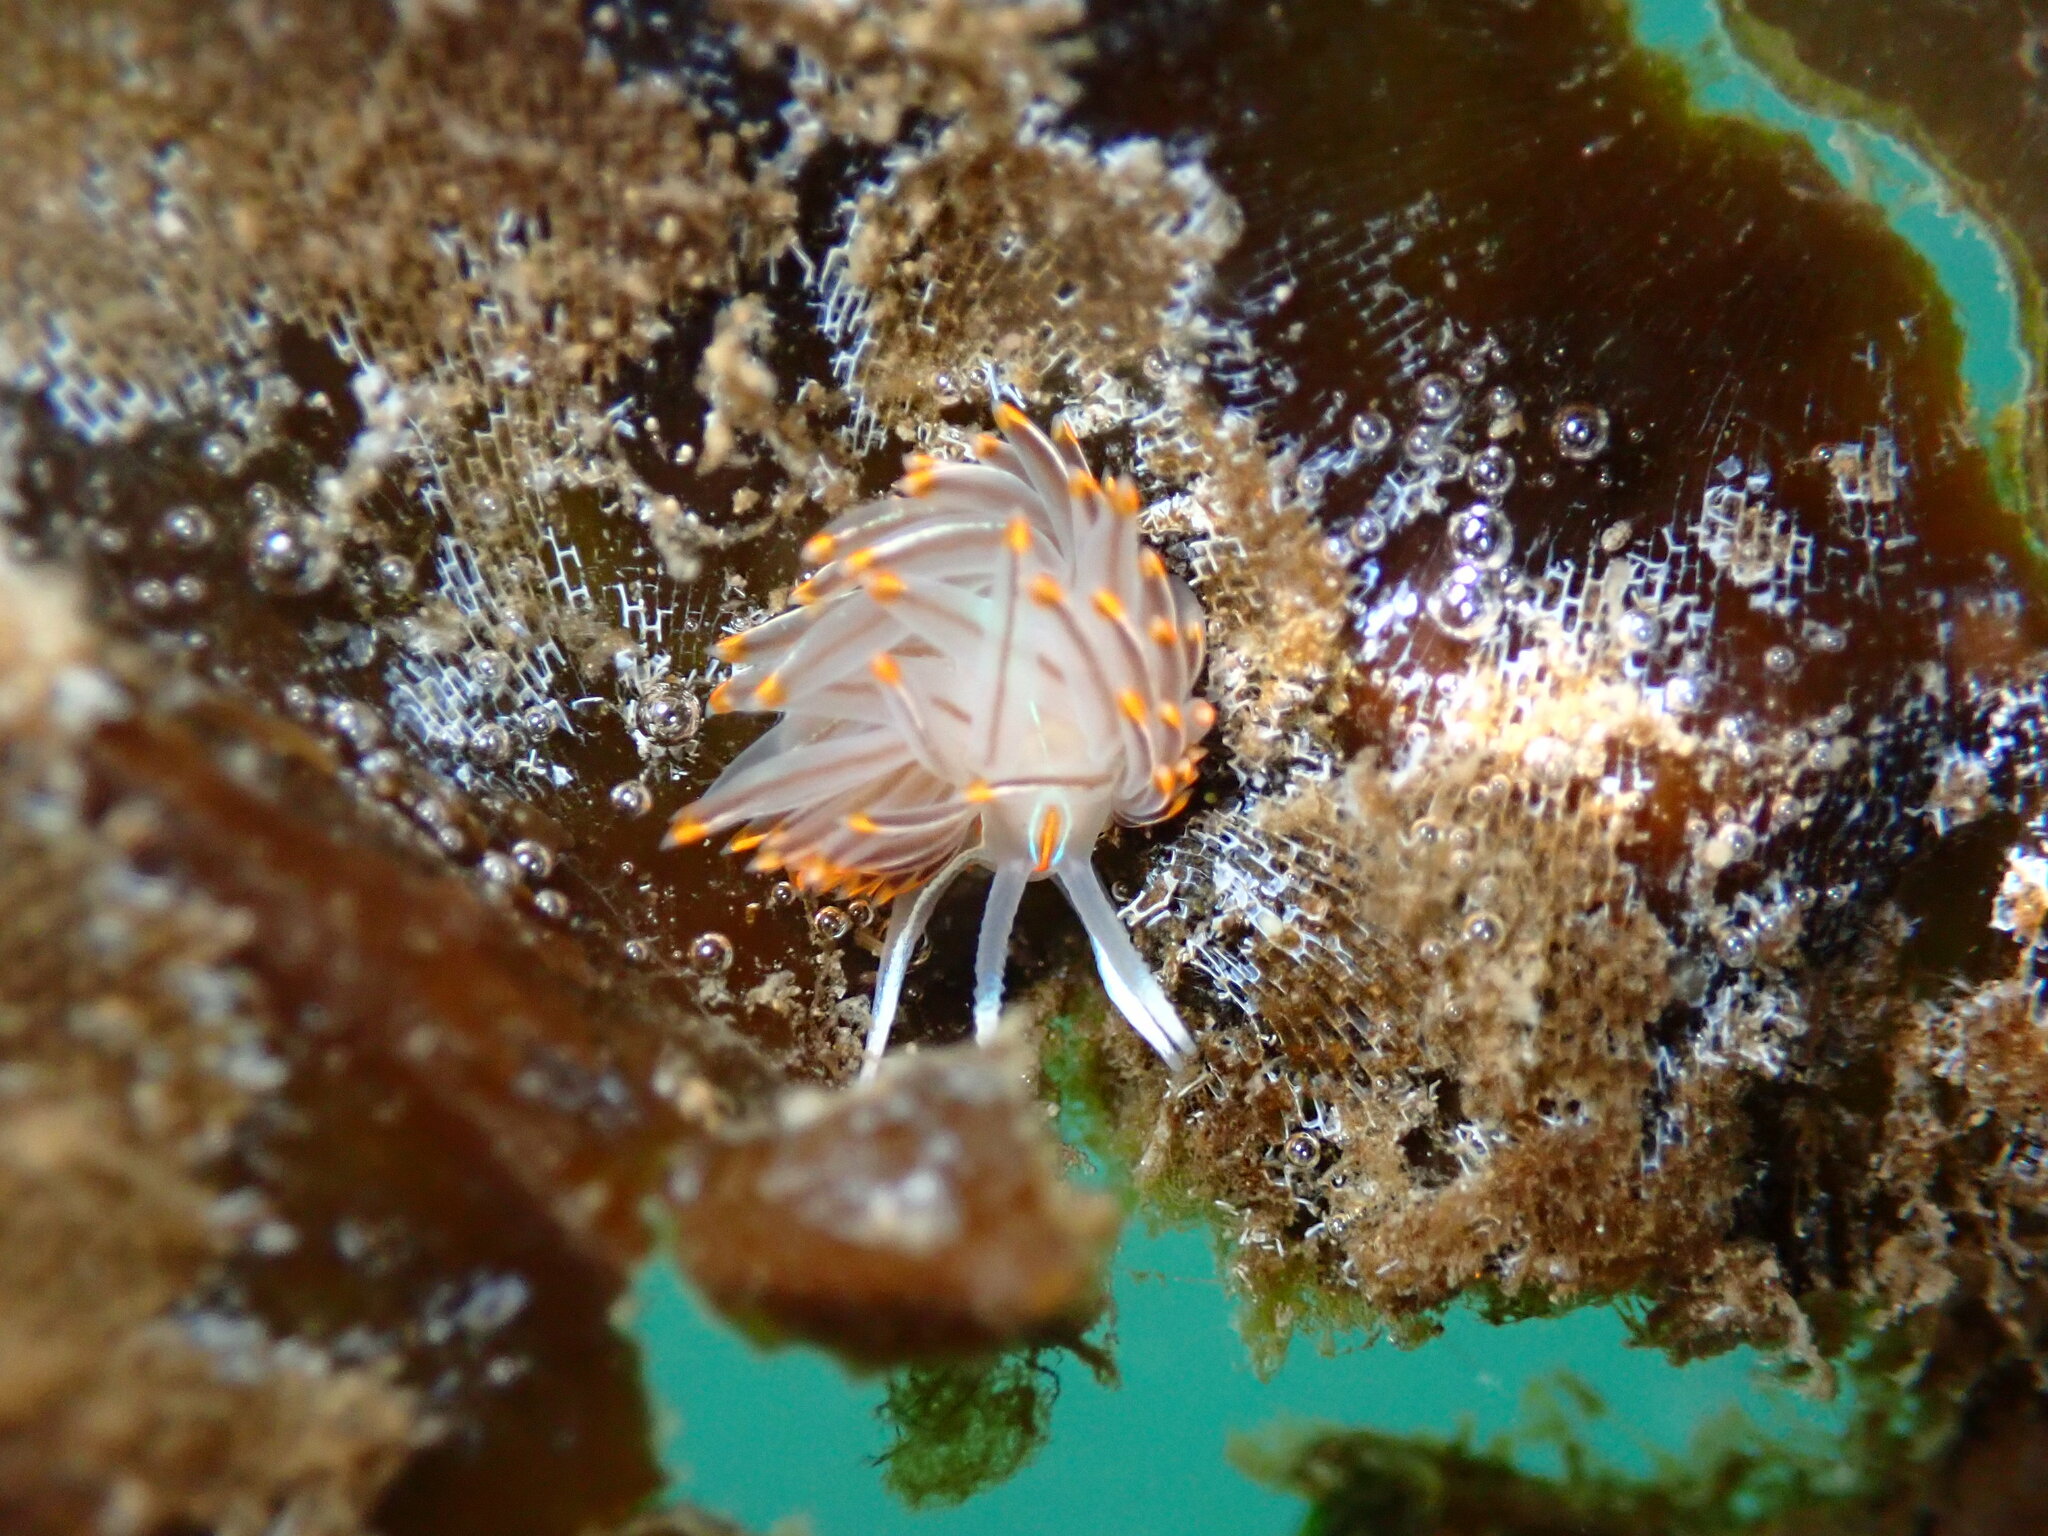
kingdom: Animalia
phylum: Mollusca
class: Gastropoda
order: Nudibranchia
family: Myrrhinidae
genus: Hermissenda
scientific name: Hermissenda crassicornis
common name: Hermissenda
